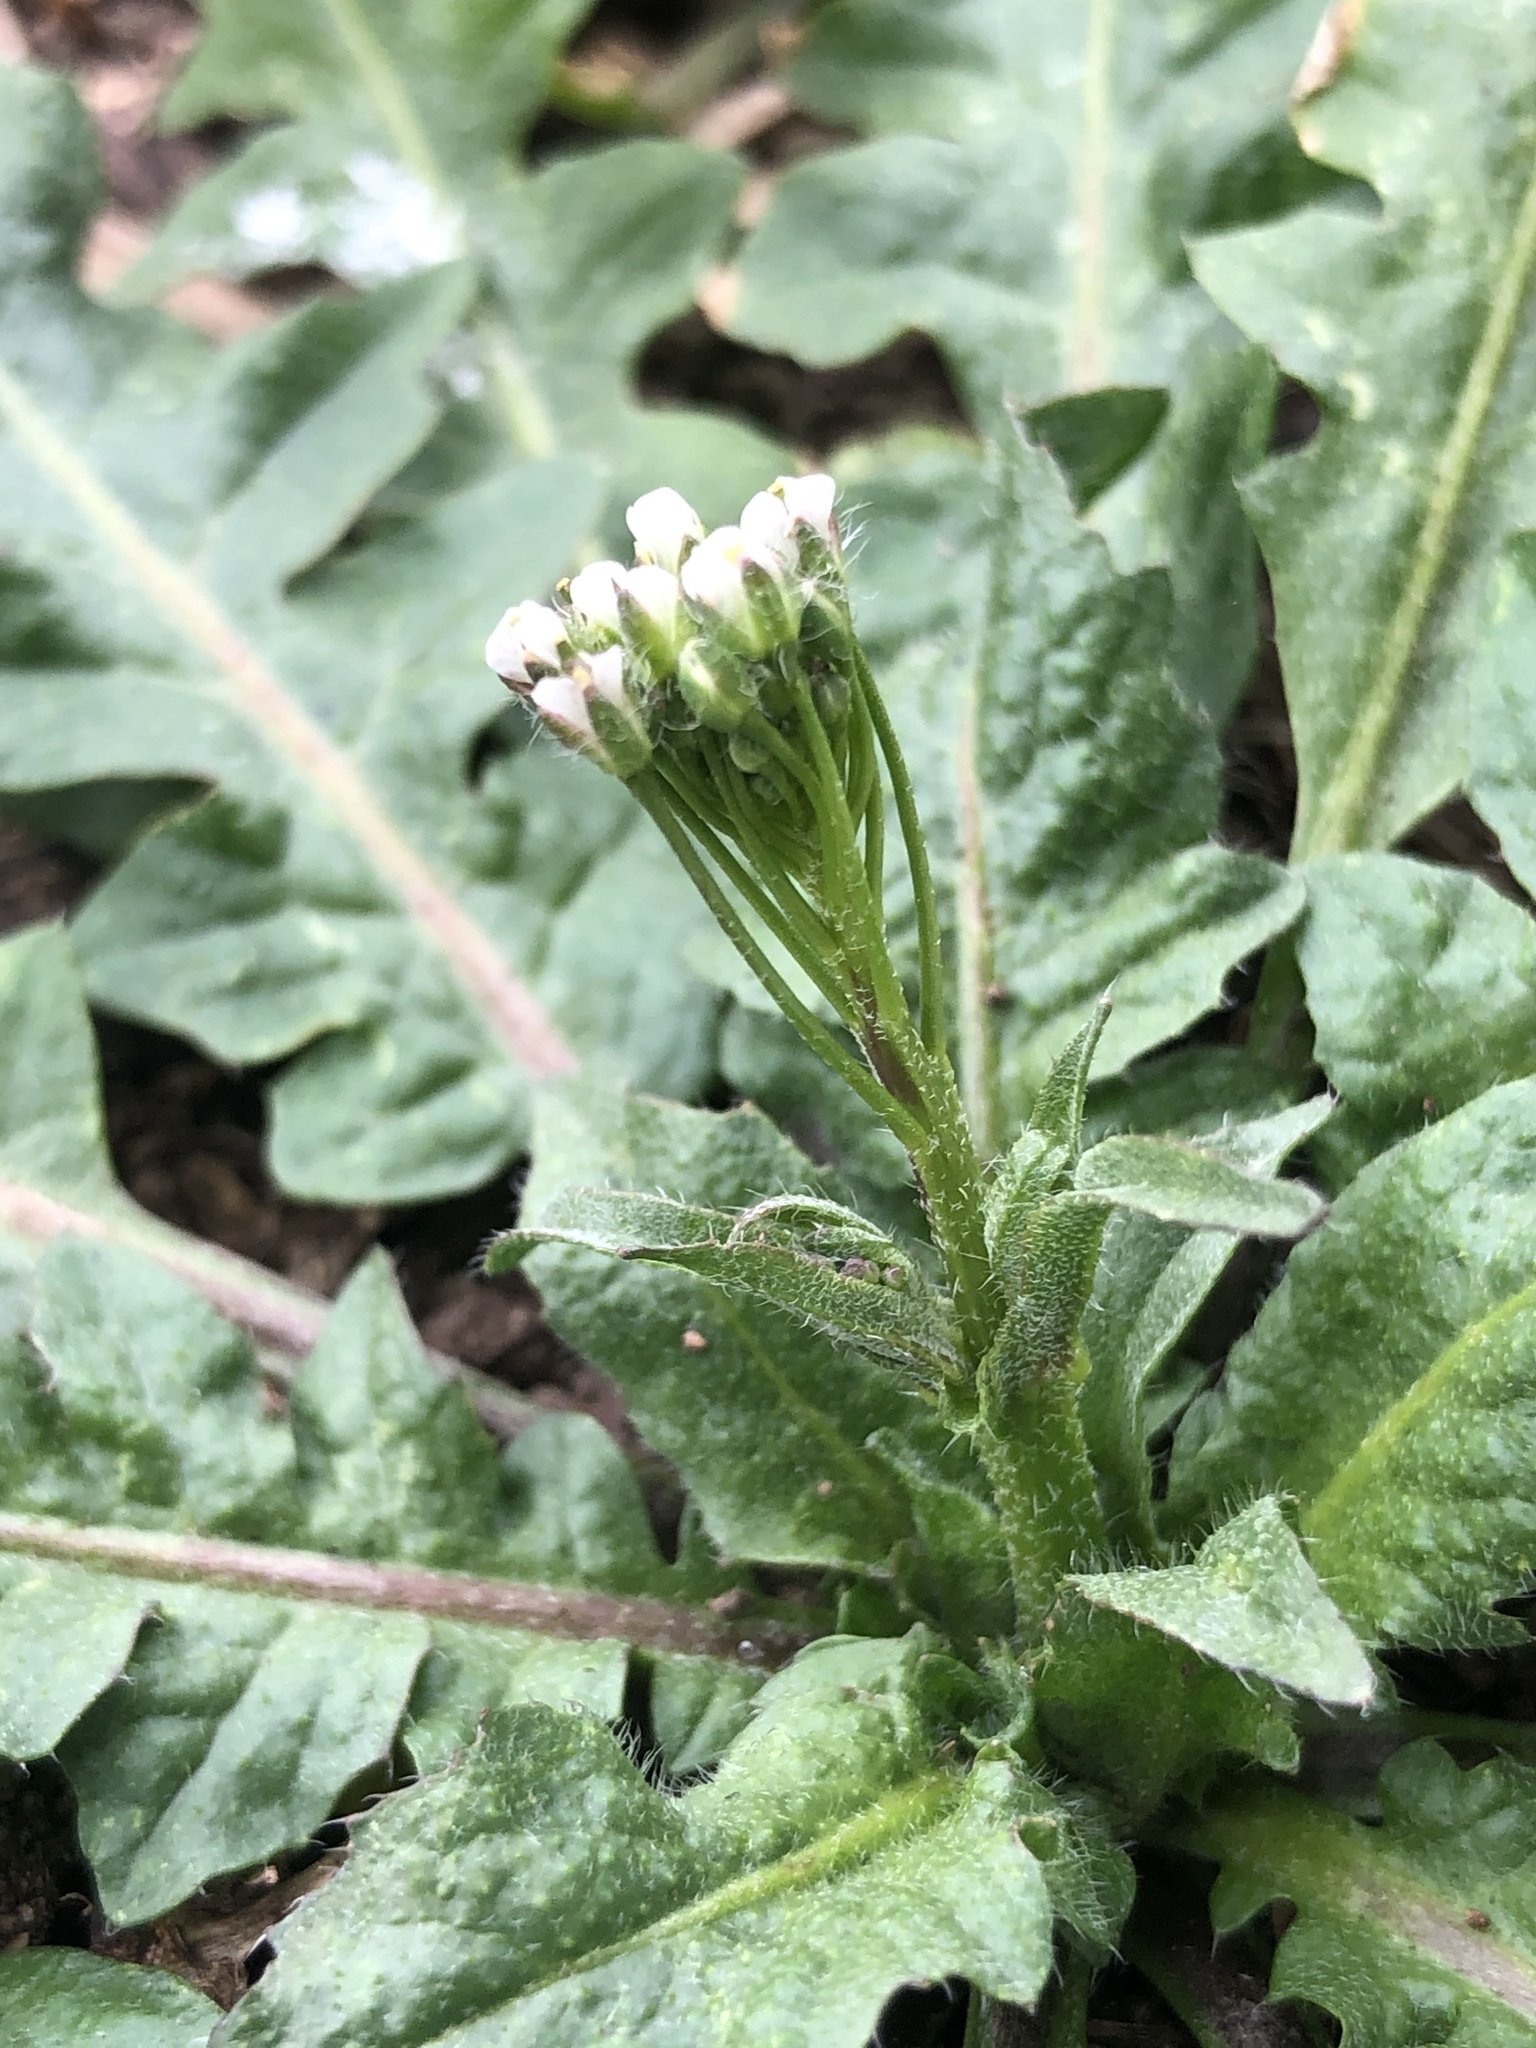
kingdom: Plantae
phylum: Tracheophyta
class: Magnoliopsida
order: Brassicales
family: Brassicaceae
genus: Capsella
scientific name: Capsella bursa-pastoris
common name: Shepherd's purse
